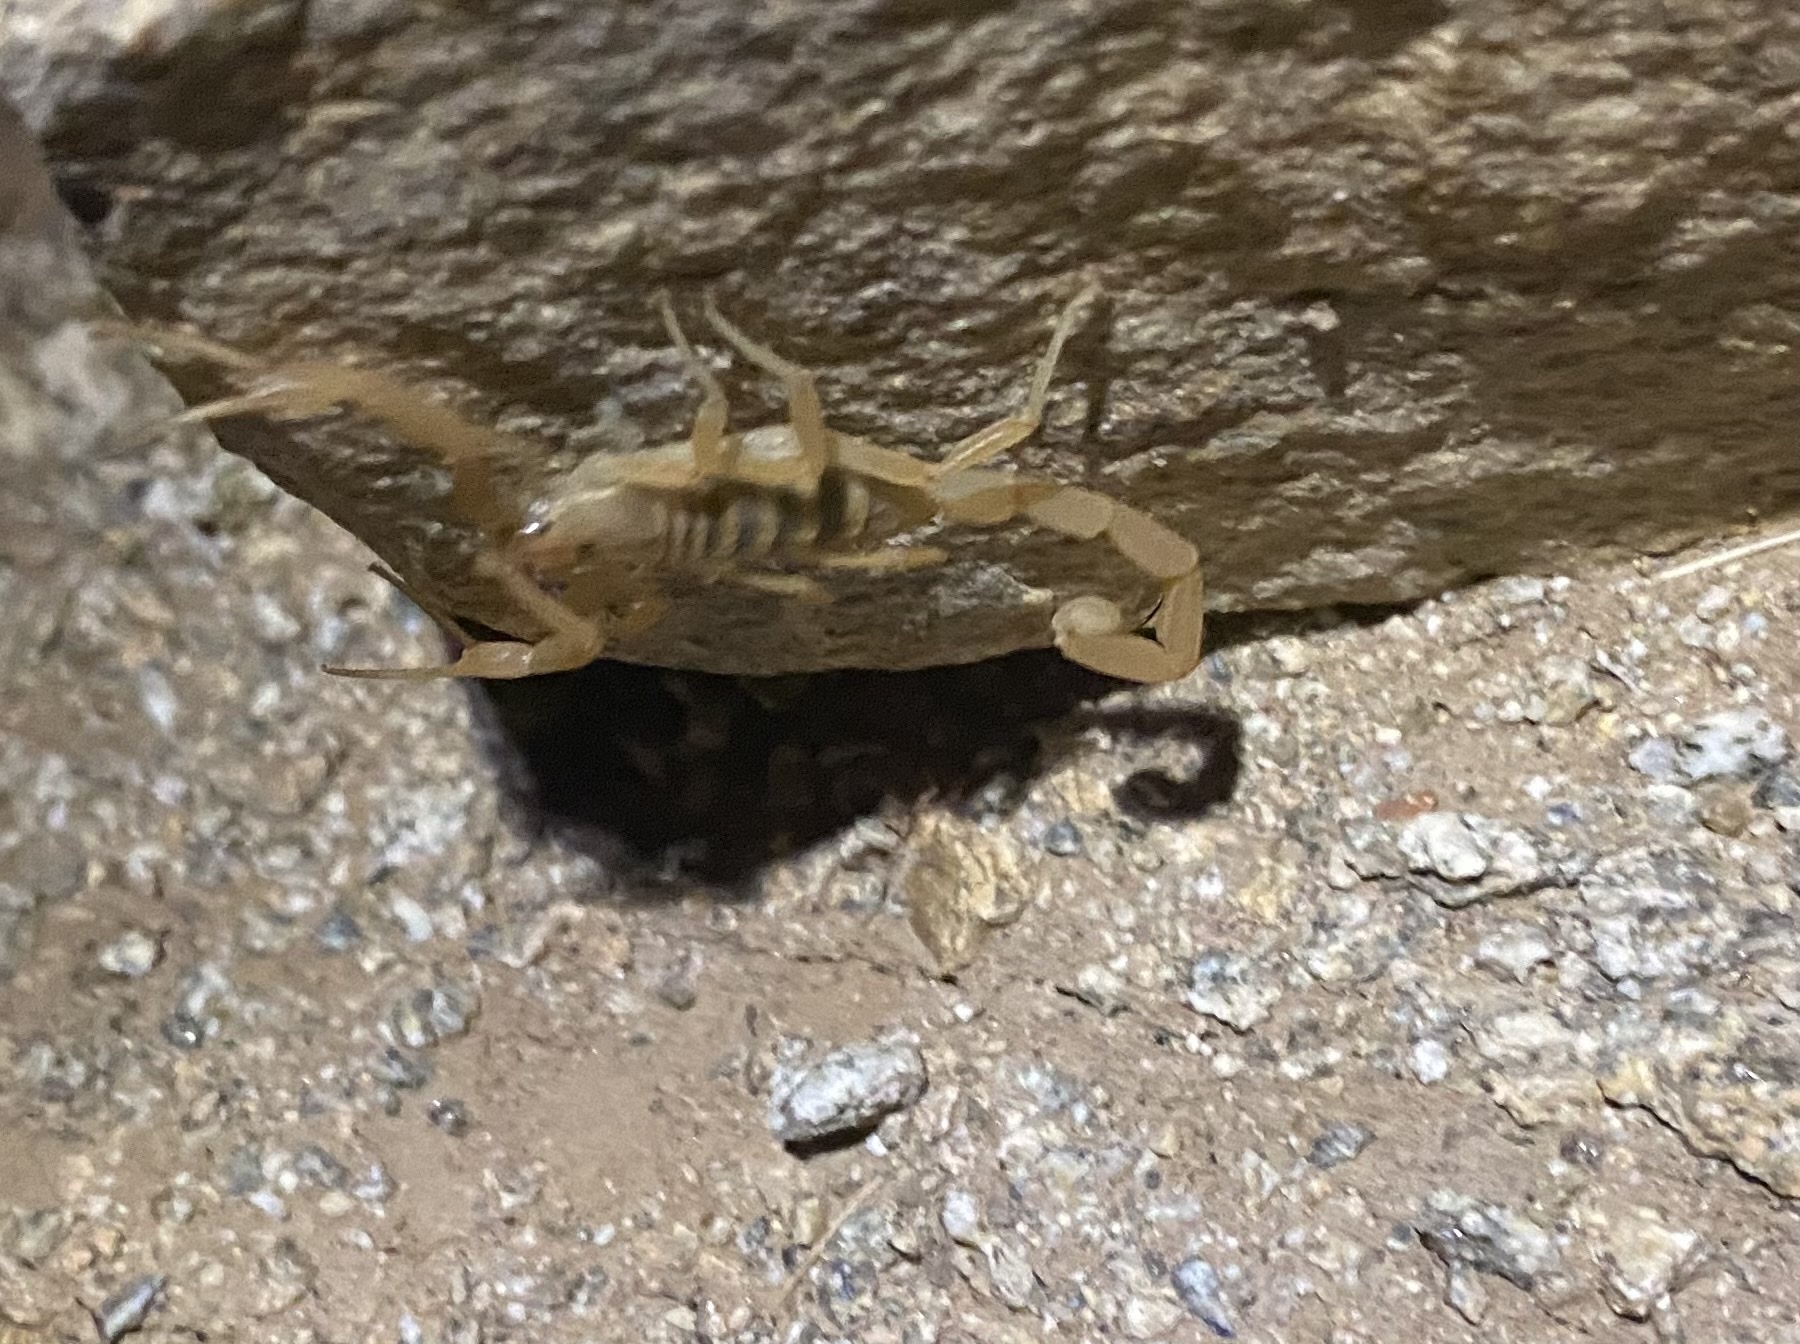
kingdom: Animalia
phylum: Arthropoda
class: Arachnida
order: Scorpiones
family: Buthidae
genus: Centruroides
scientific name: Centruroides sculpturatus
